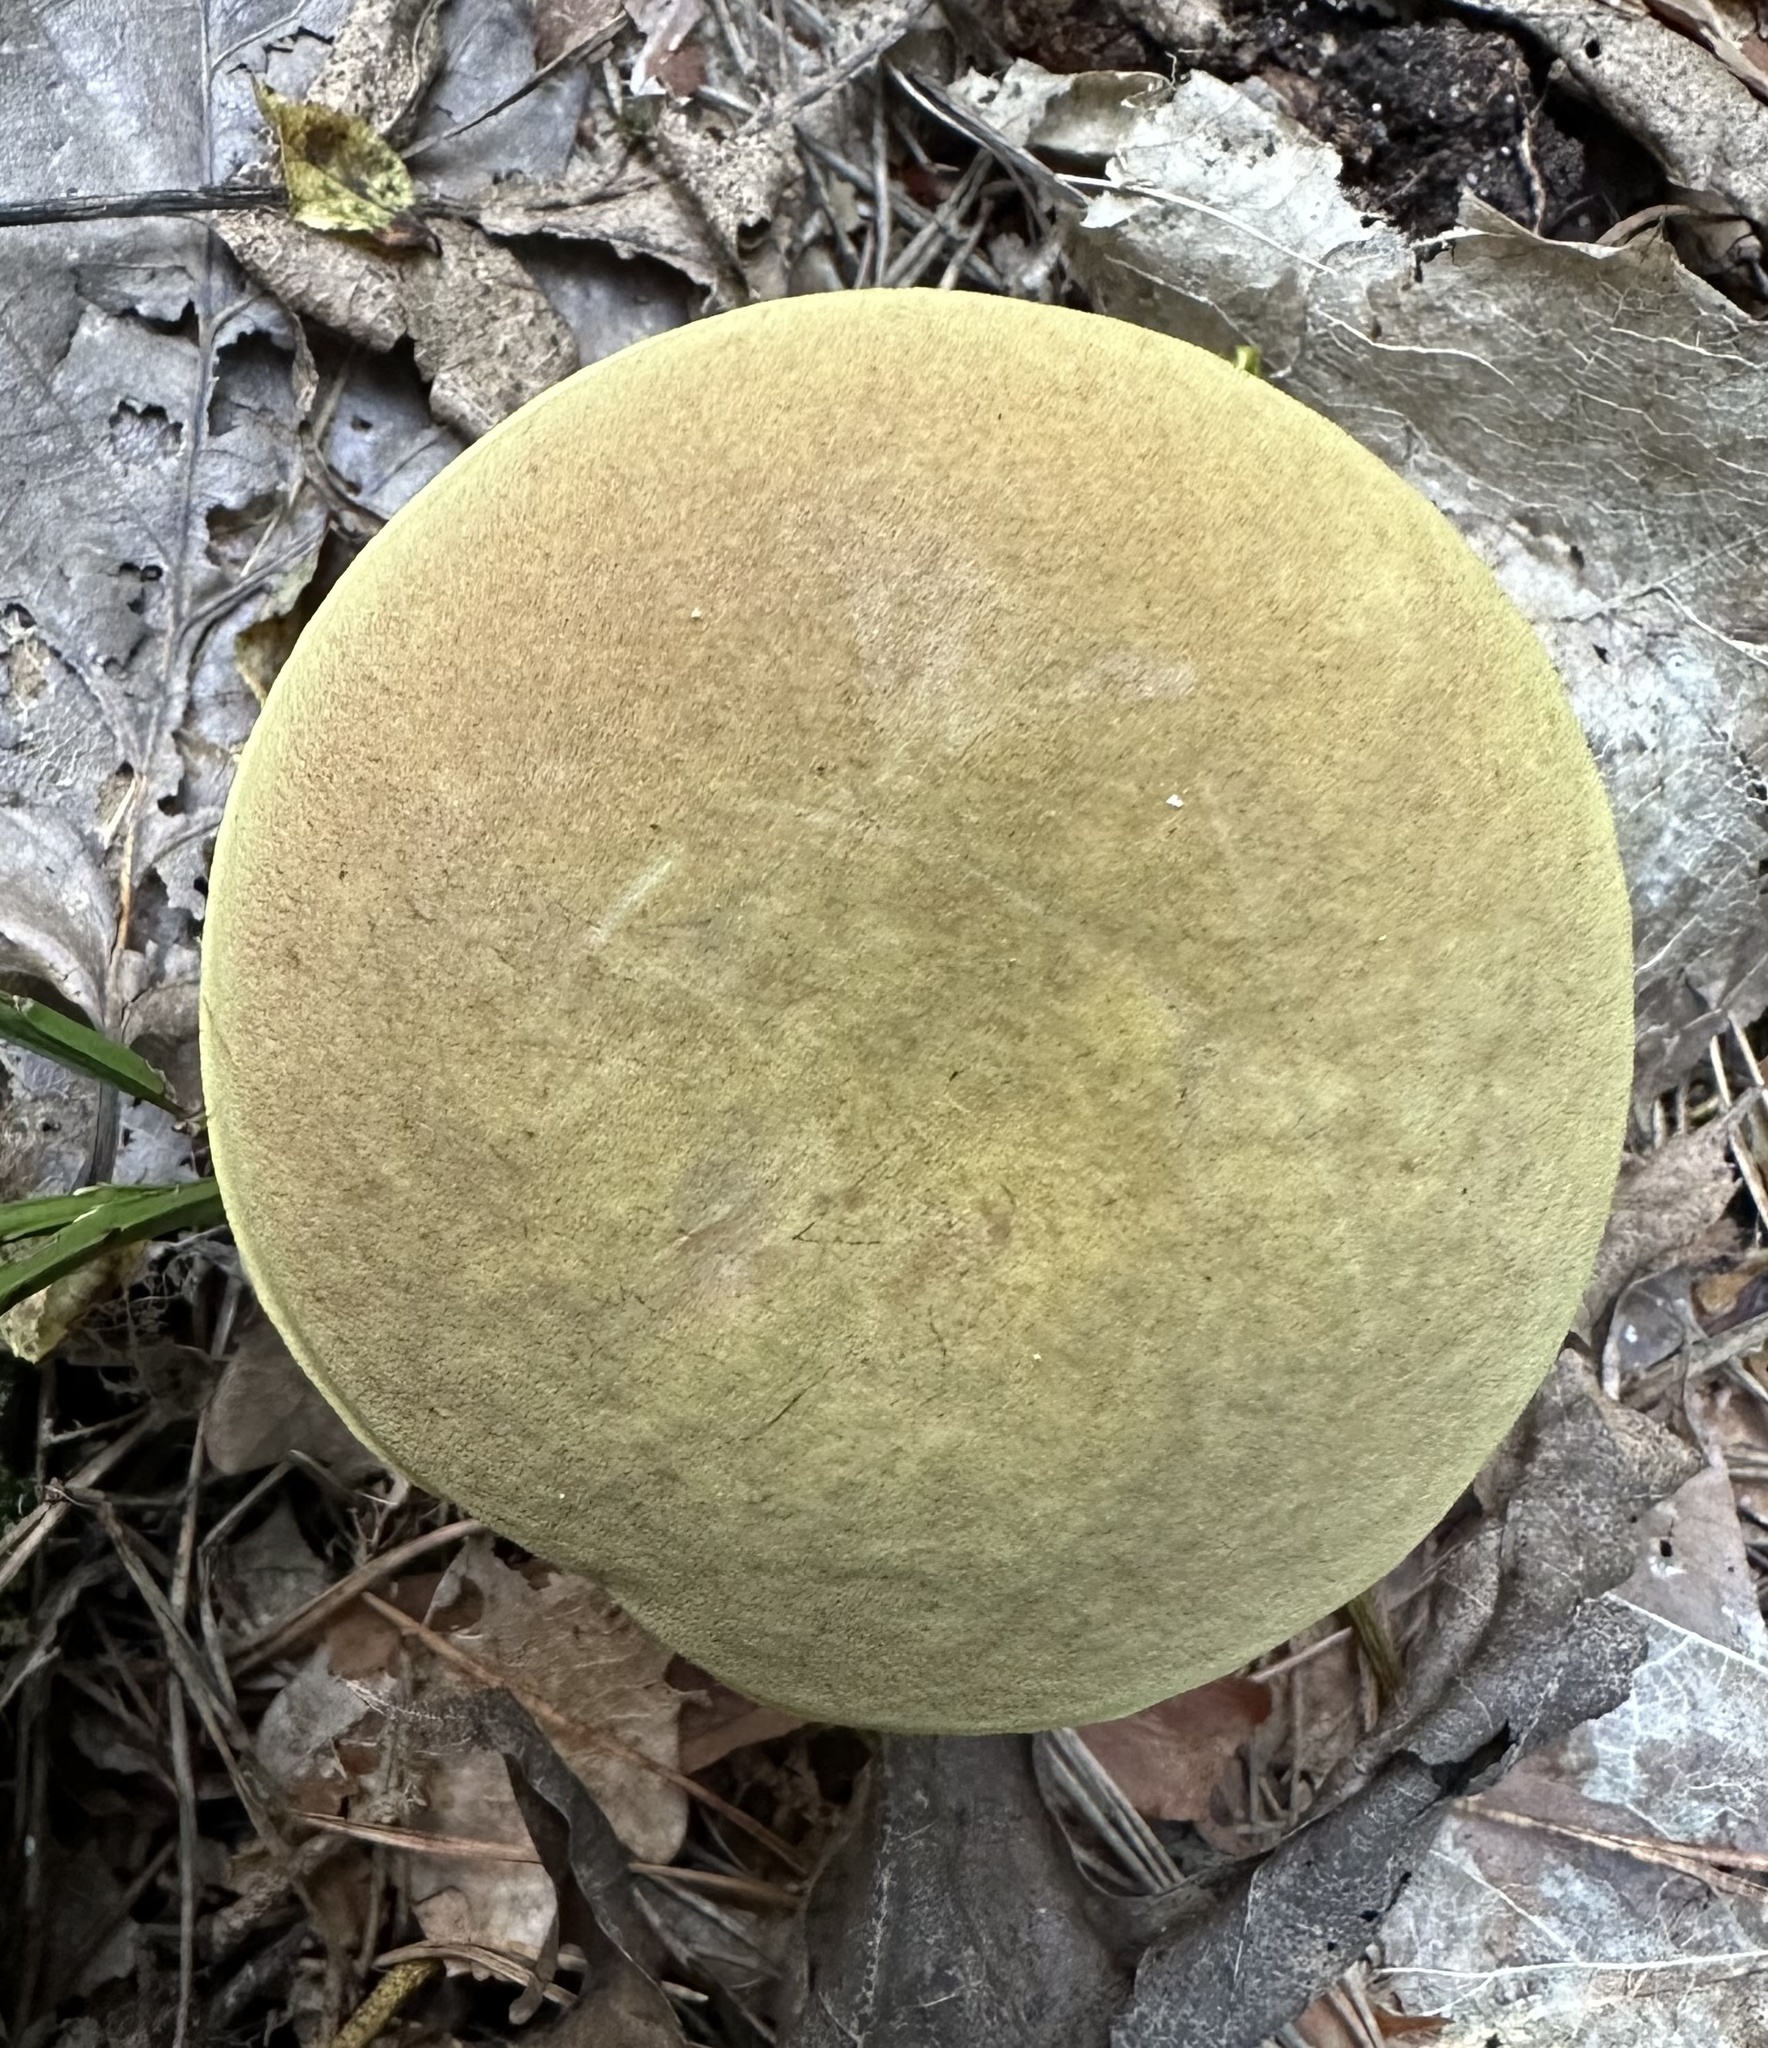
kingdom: Fungi
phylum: Basidiomycota
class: Agaricomycetes
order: Boletales
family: Boletaceae
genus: Xerocomus
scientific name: Xerocomus subtomentosus
